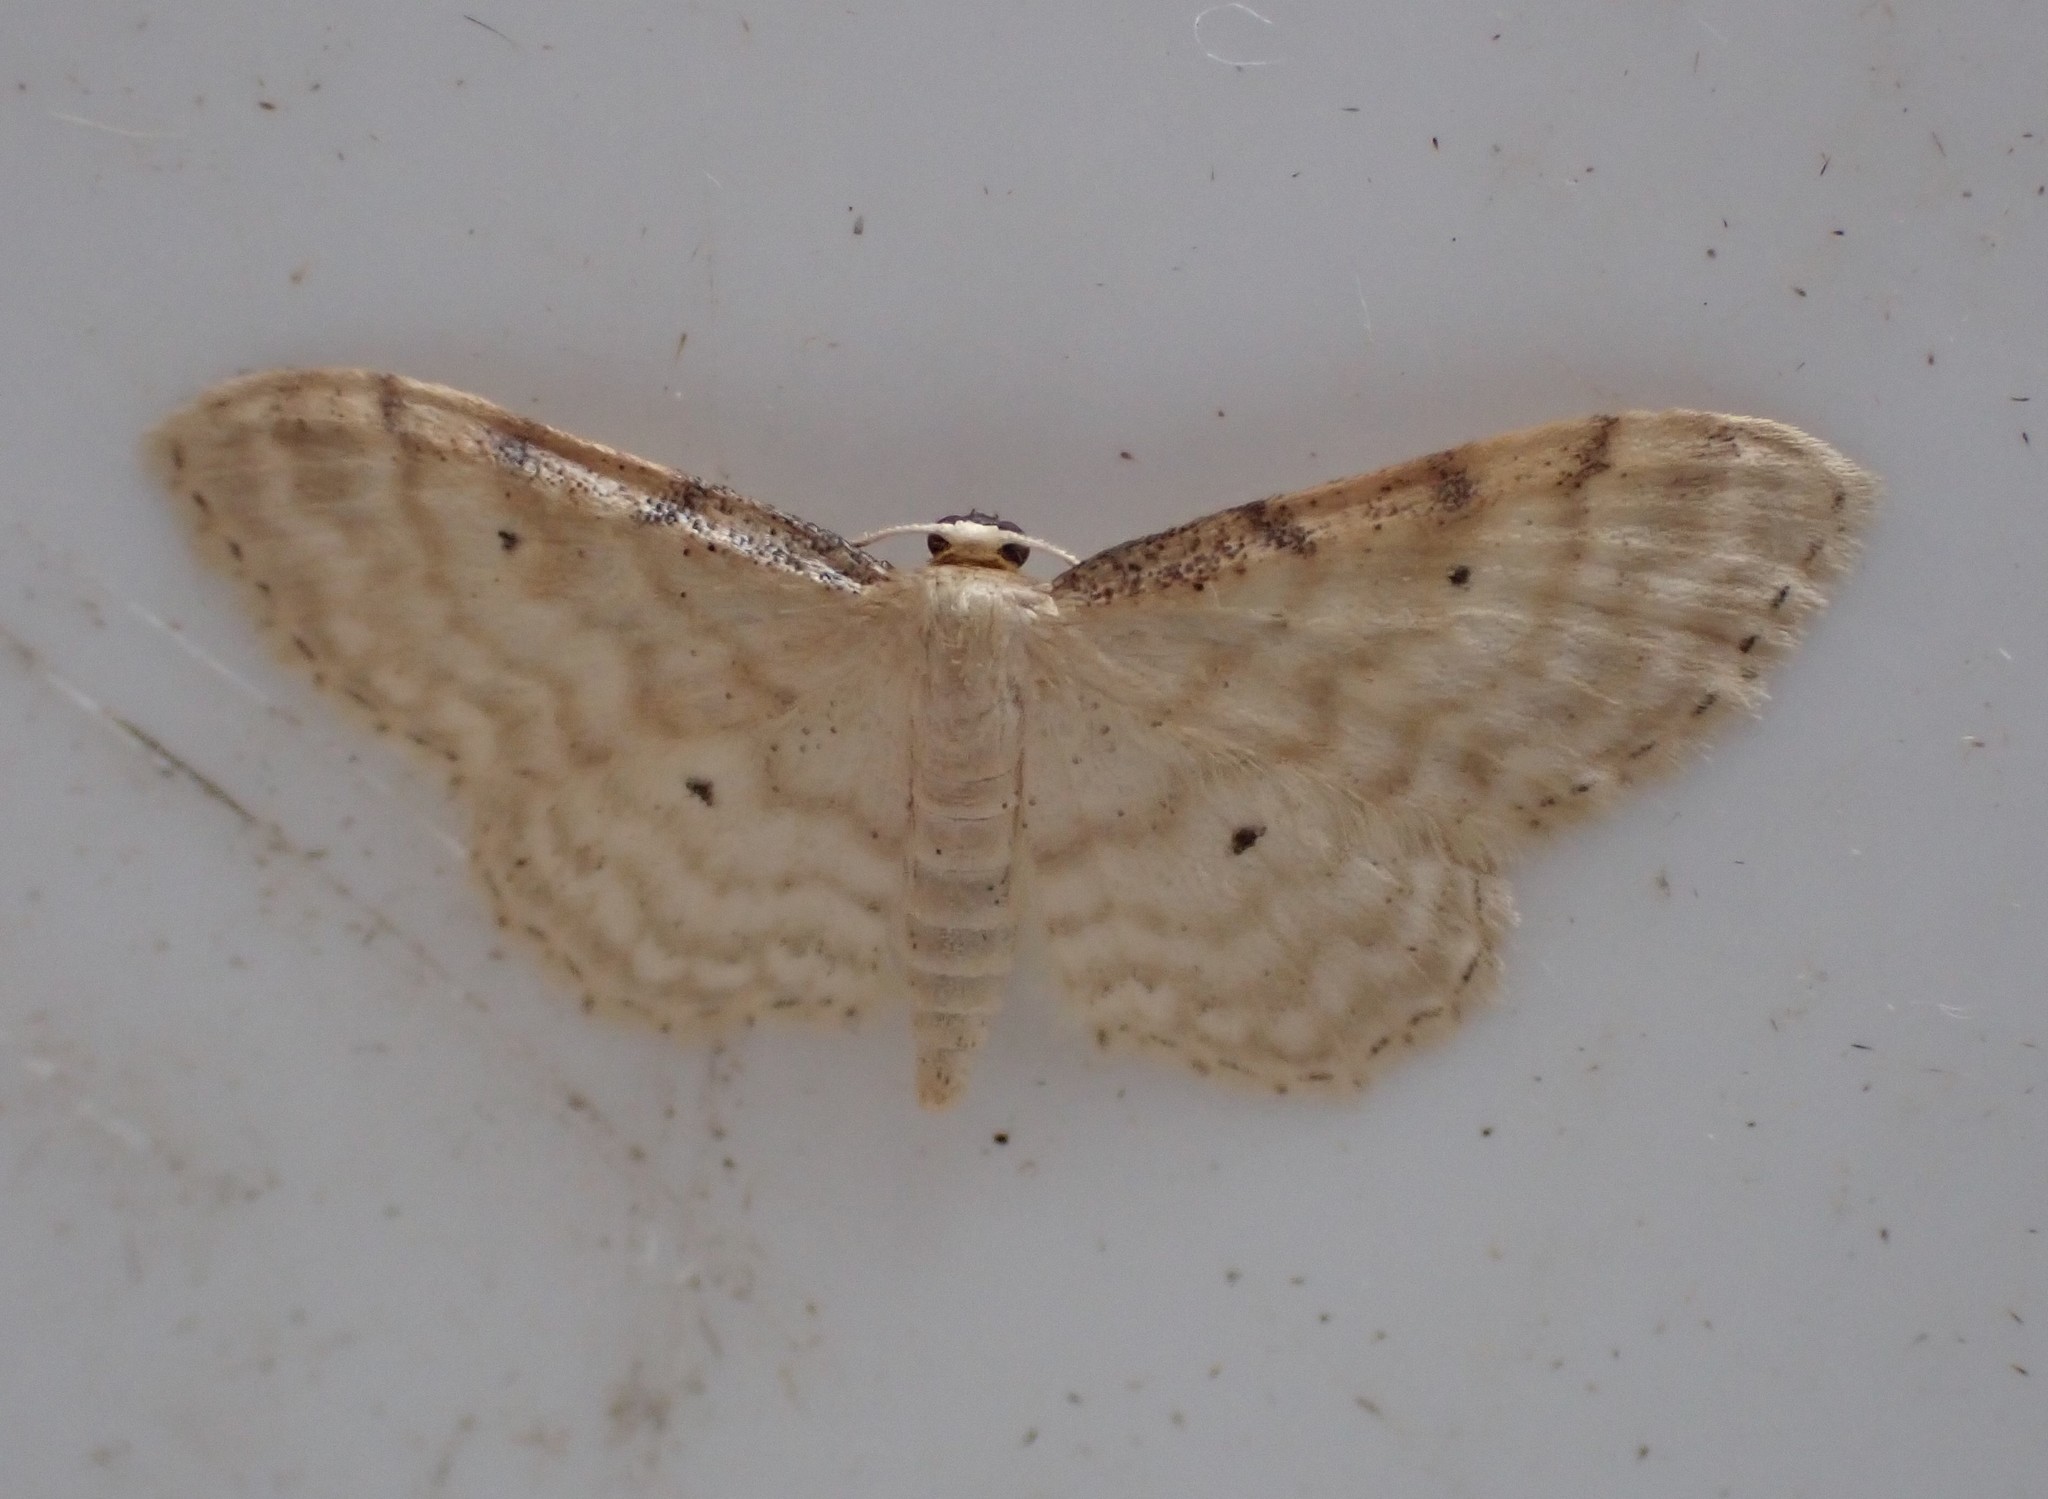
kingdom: Animalia
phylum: Arthropoda
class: Insecta
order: Lepidoptera
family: Geometridae
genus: Idaea
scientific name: Idaea fuscovenosa
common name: Dwarf cream wave
